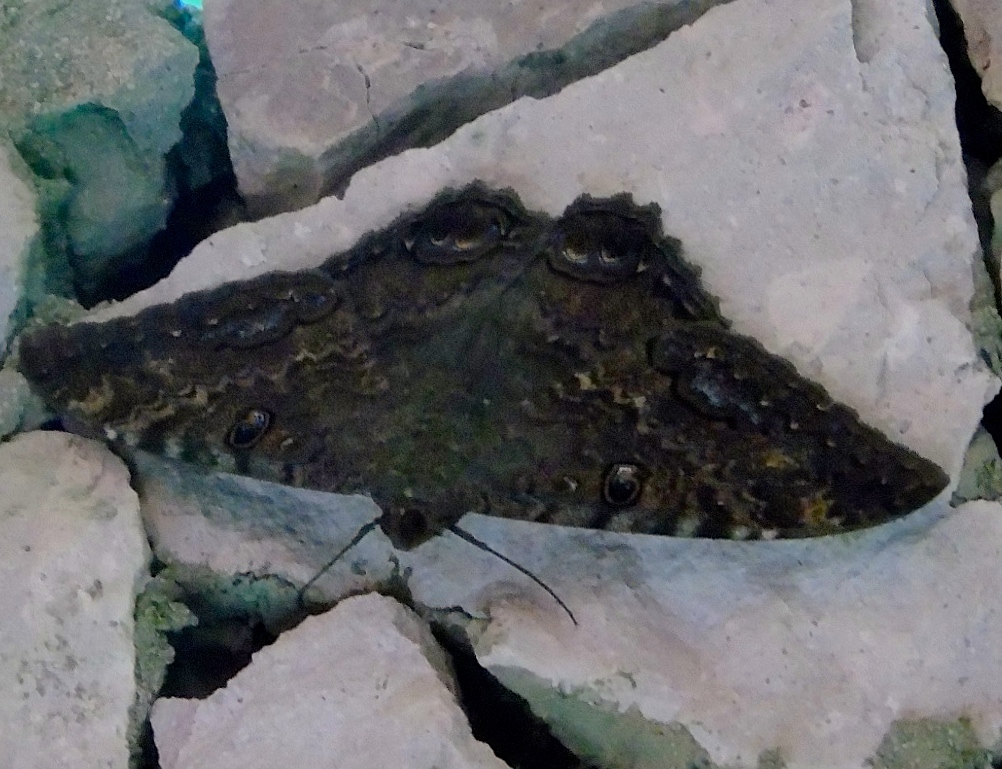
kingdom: Animalia
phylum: Arthropoda
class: Insecta
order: Lepidoptera
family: Erebidae
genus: Ascalapha
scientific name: Ascalapha odorata
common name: Black witch
